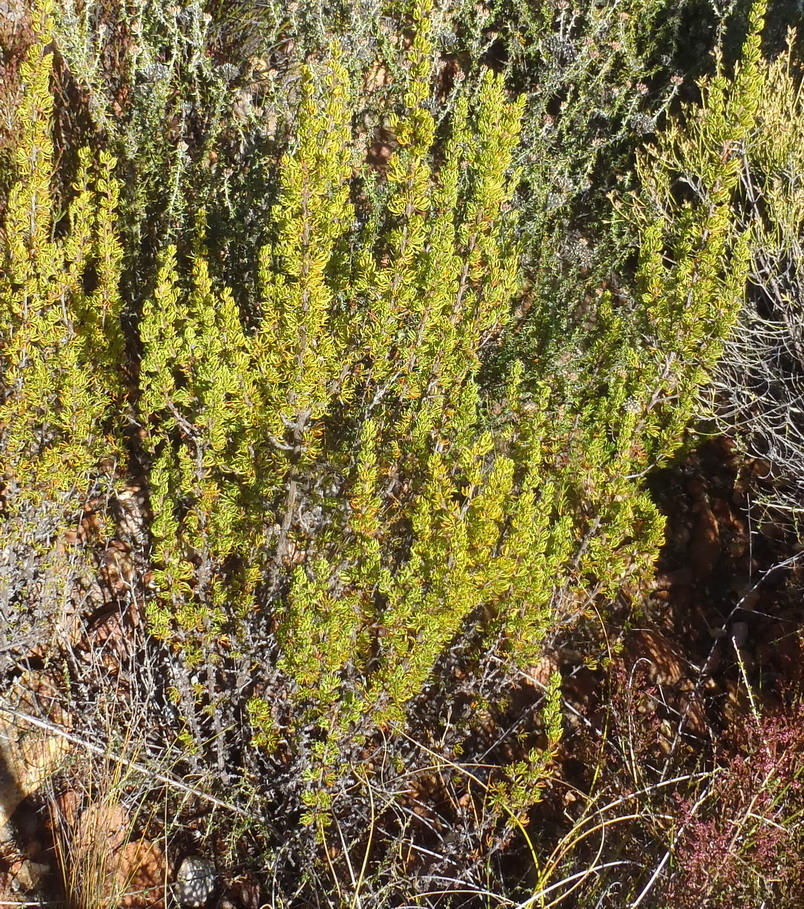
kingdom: Plantae
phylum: Tracheophyta
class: Magnoliopsida
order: Rosales
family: Rosaceae
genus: Cliffortia
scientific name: Cliffortia arcuata
